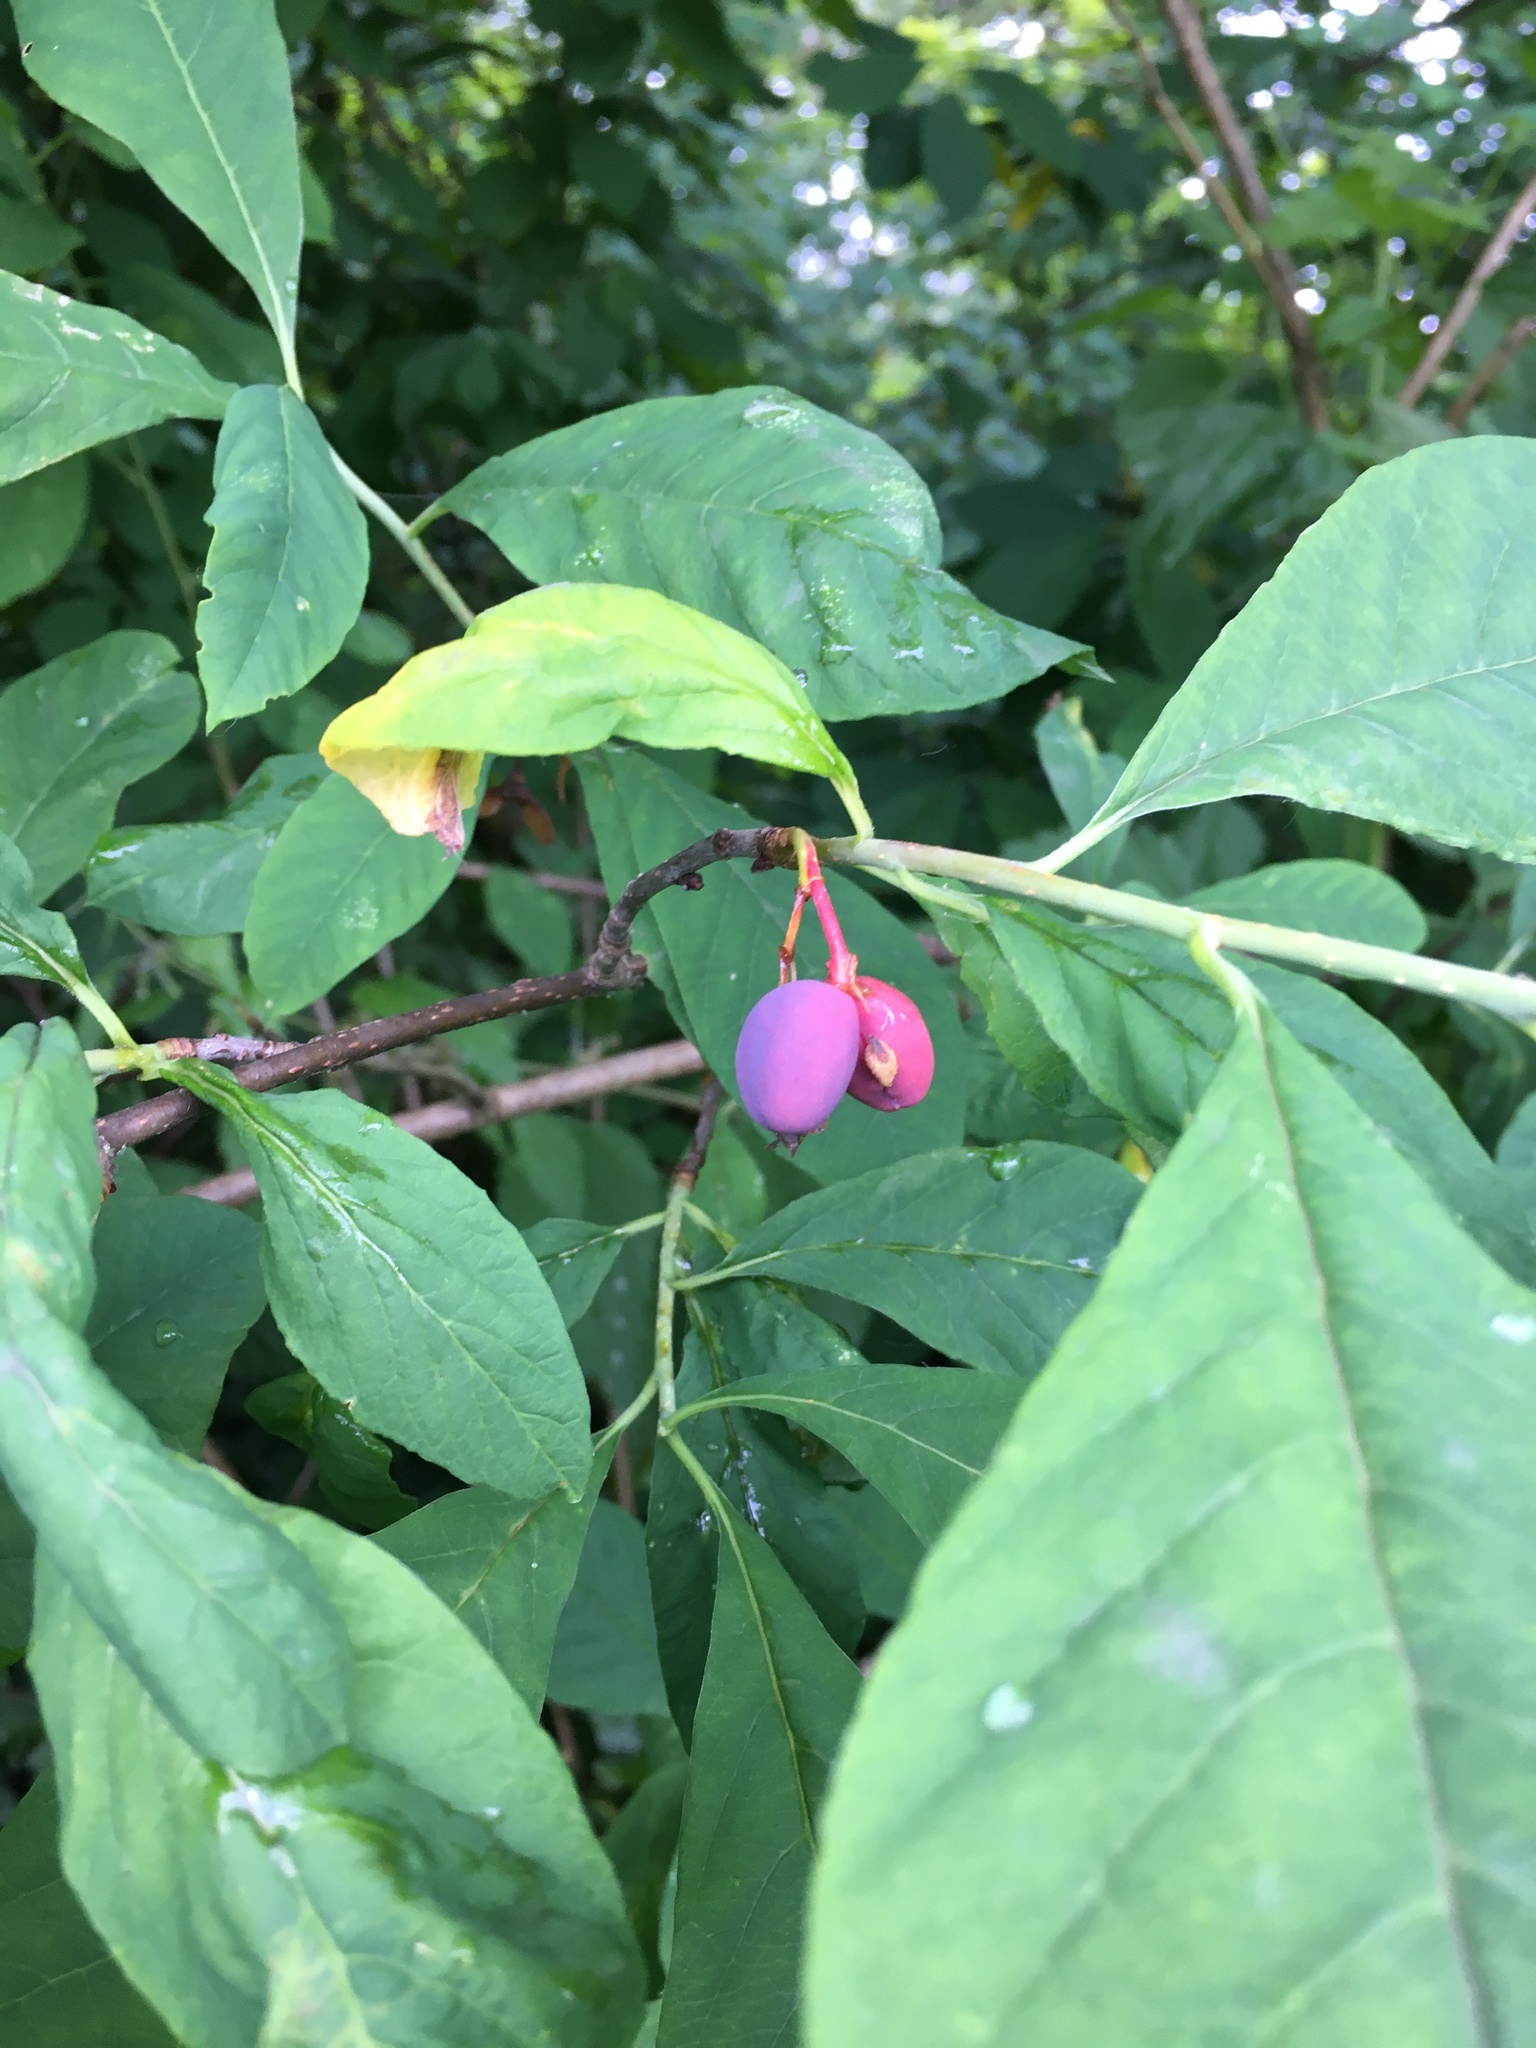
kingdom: Plantae
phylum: Tracheophyta
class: Magnoliopsida
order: Rosales
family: Rosaceae
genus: Oemleria
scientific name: Oemleria cerasiformis
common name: Osoberry
